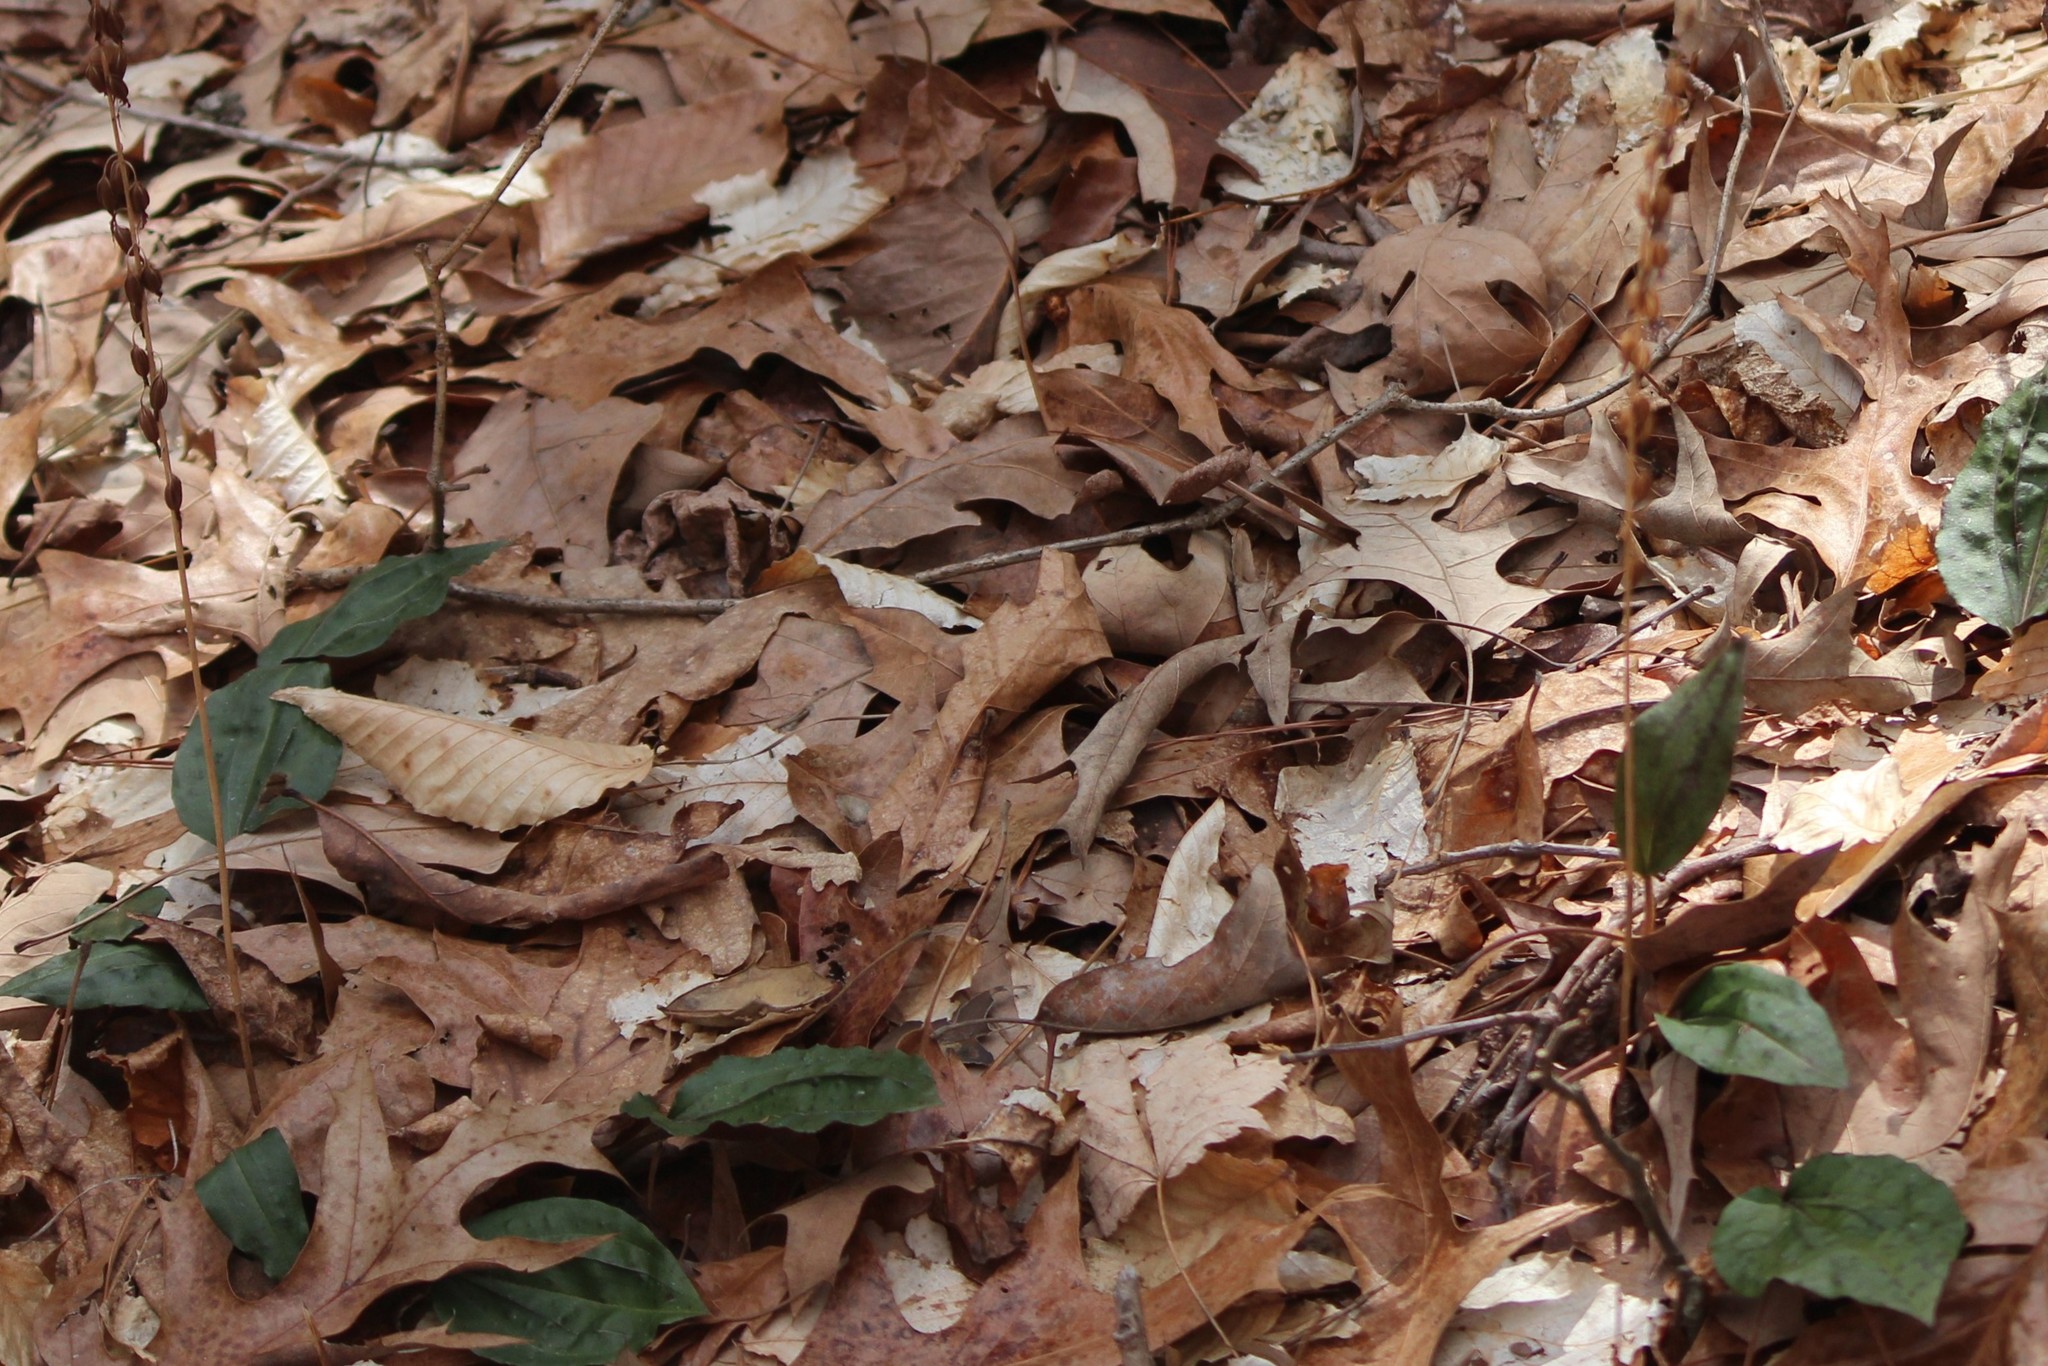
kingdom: Plantae
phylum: Tracheophyta
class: Liliopsida
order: Asparagales
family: Orchidaceae
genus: Tipularia
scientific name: Tipularia discolor
